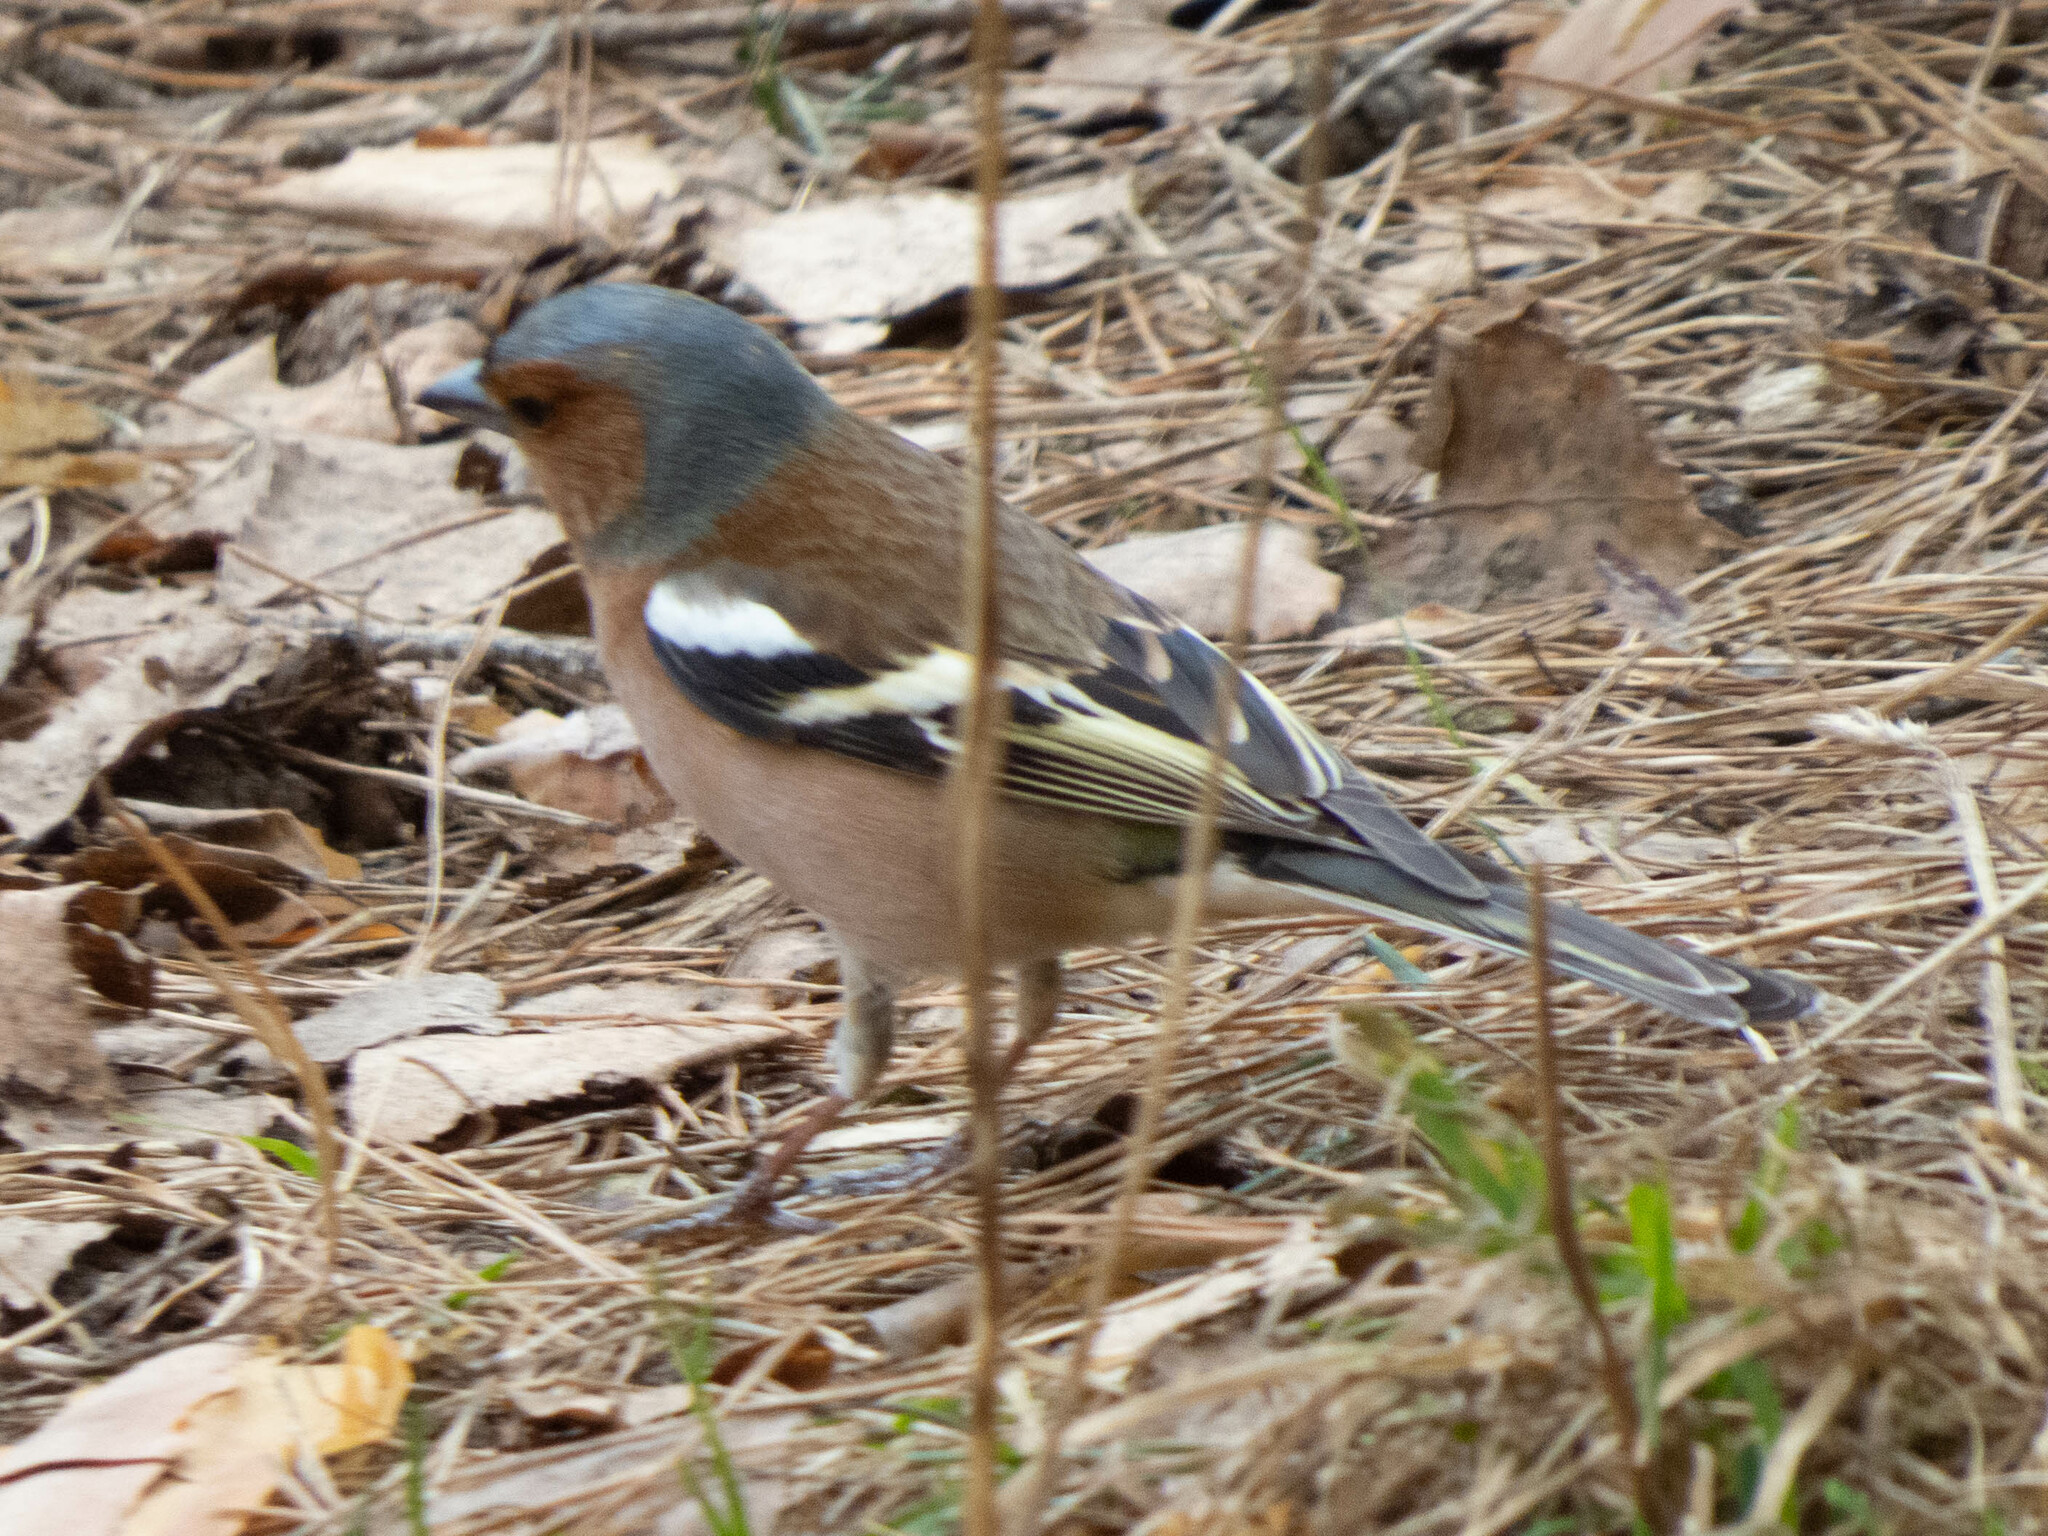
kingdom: Animalia
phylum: Chordata
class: Aves
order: Passeriformes
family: Fringillidae
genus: Fringilla
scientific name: Fringilla coelebs
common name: Common chaffinch
